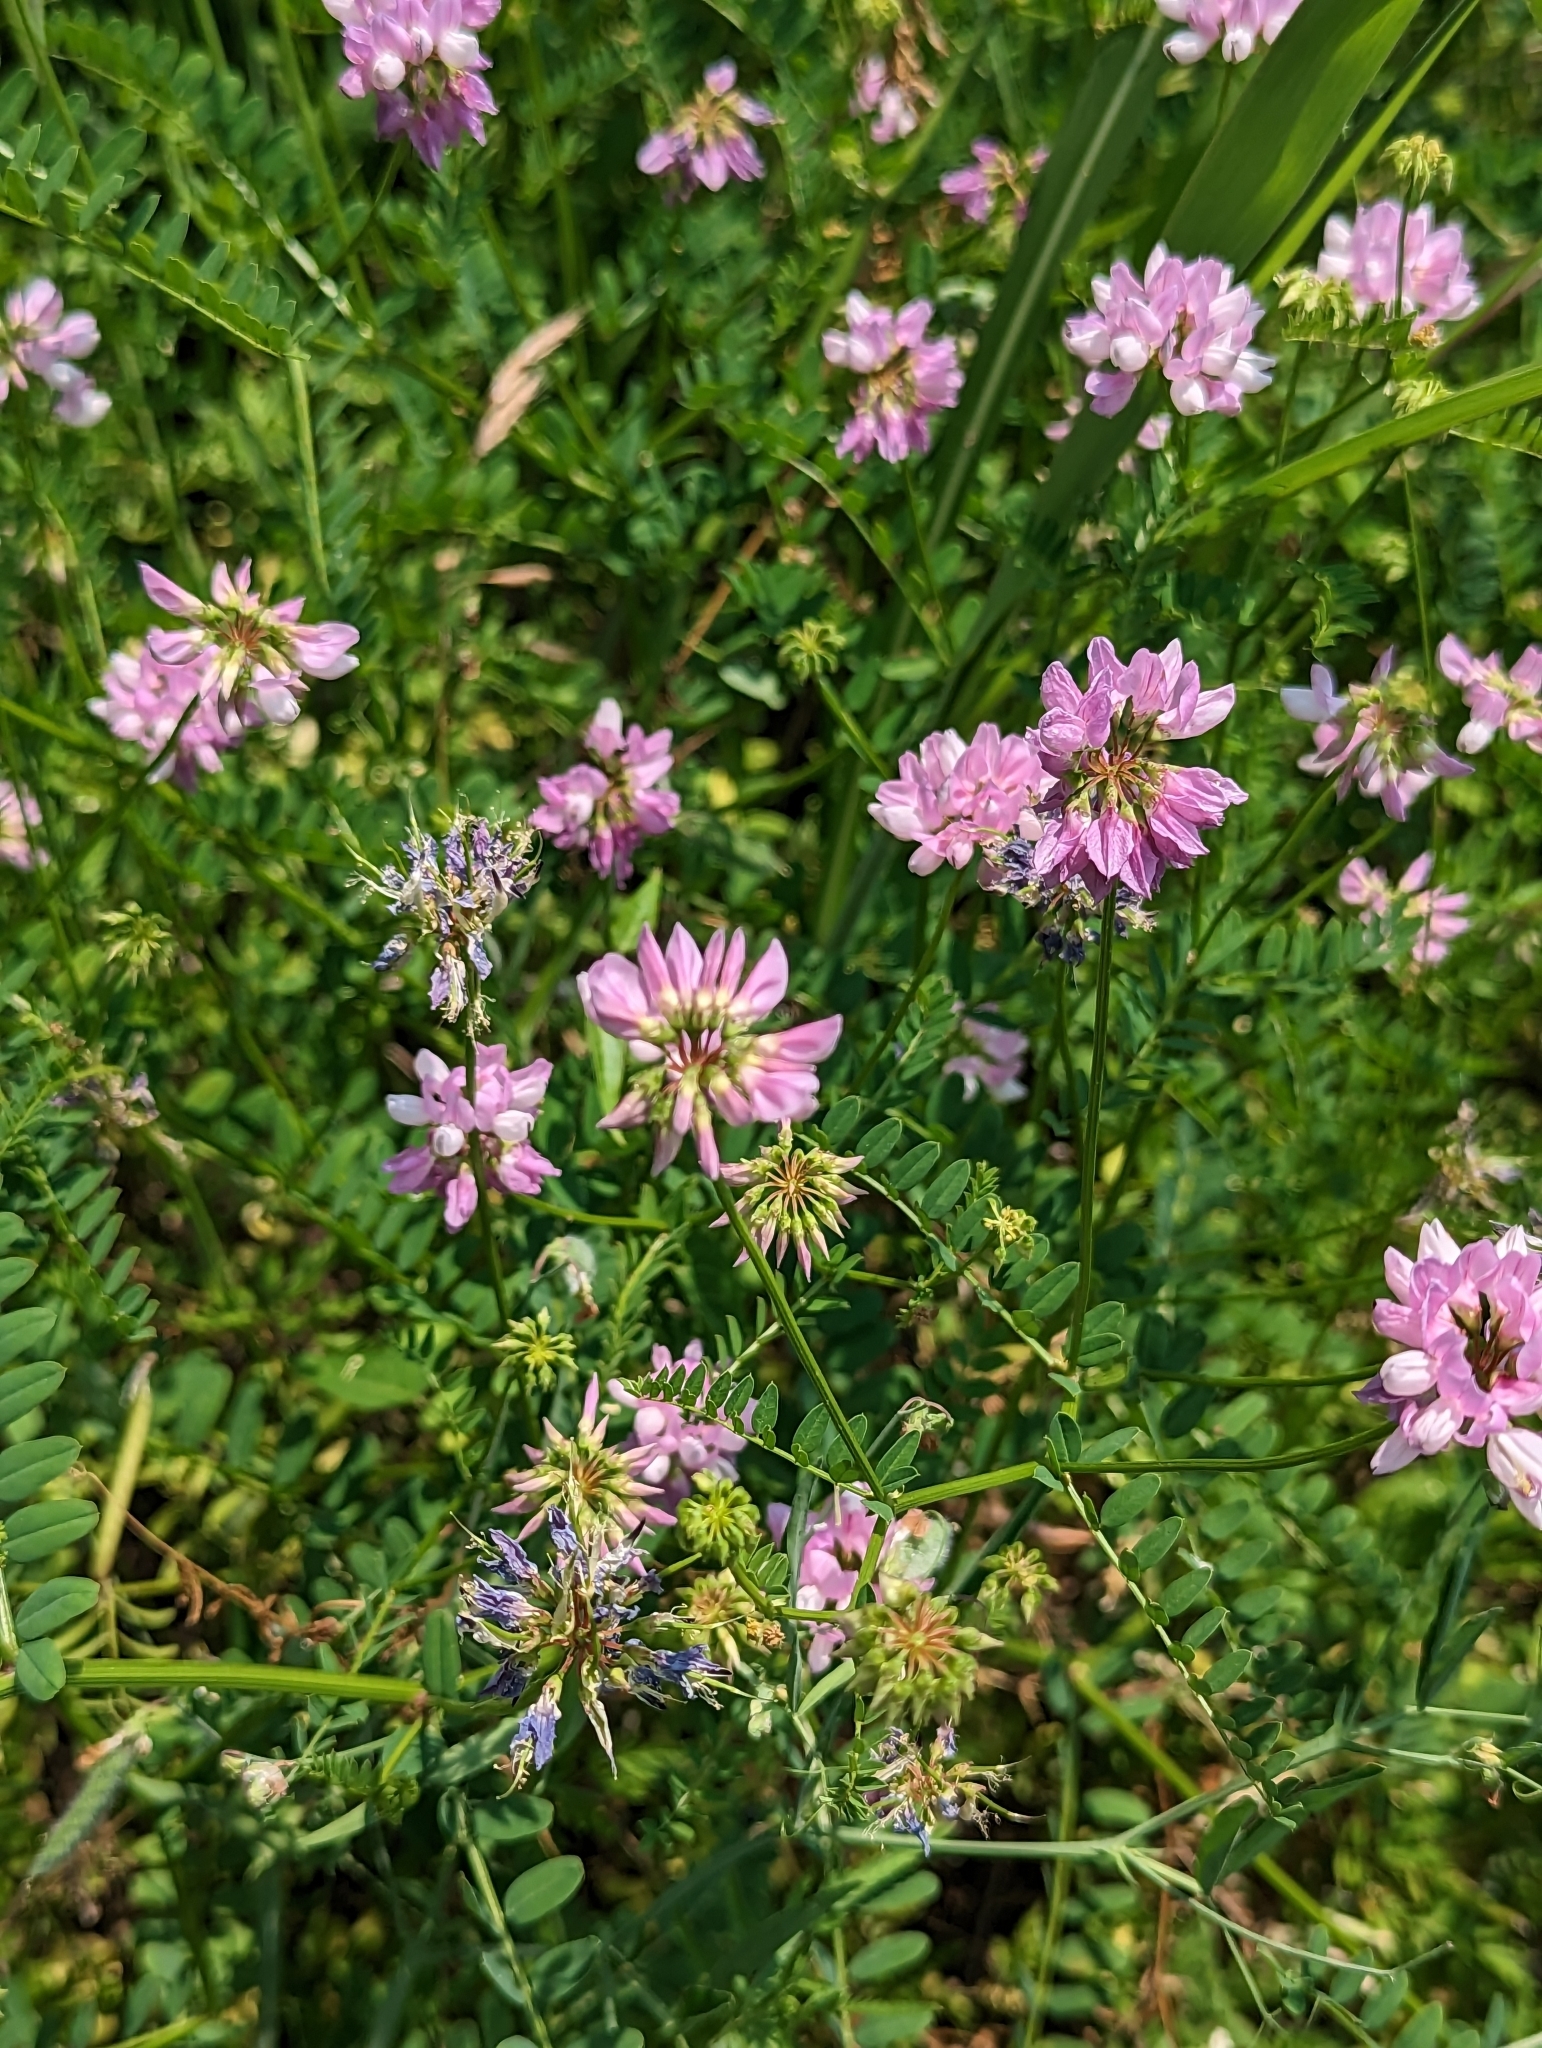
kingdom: Plantae
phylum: Tracheophyta
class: Magnoliopsida
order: Fabales
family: Fabaceae
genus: Coronilla
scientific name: Coronilla varia
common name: Crownvetch
